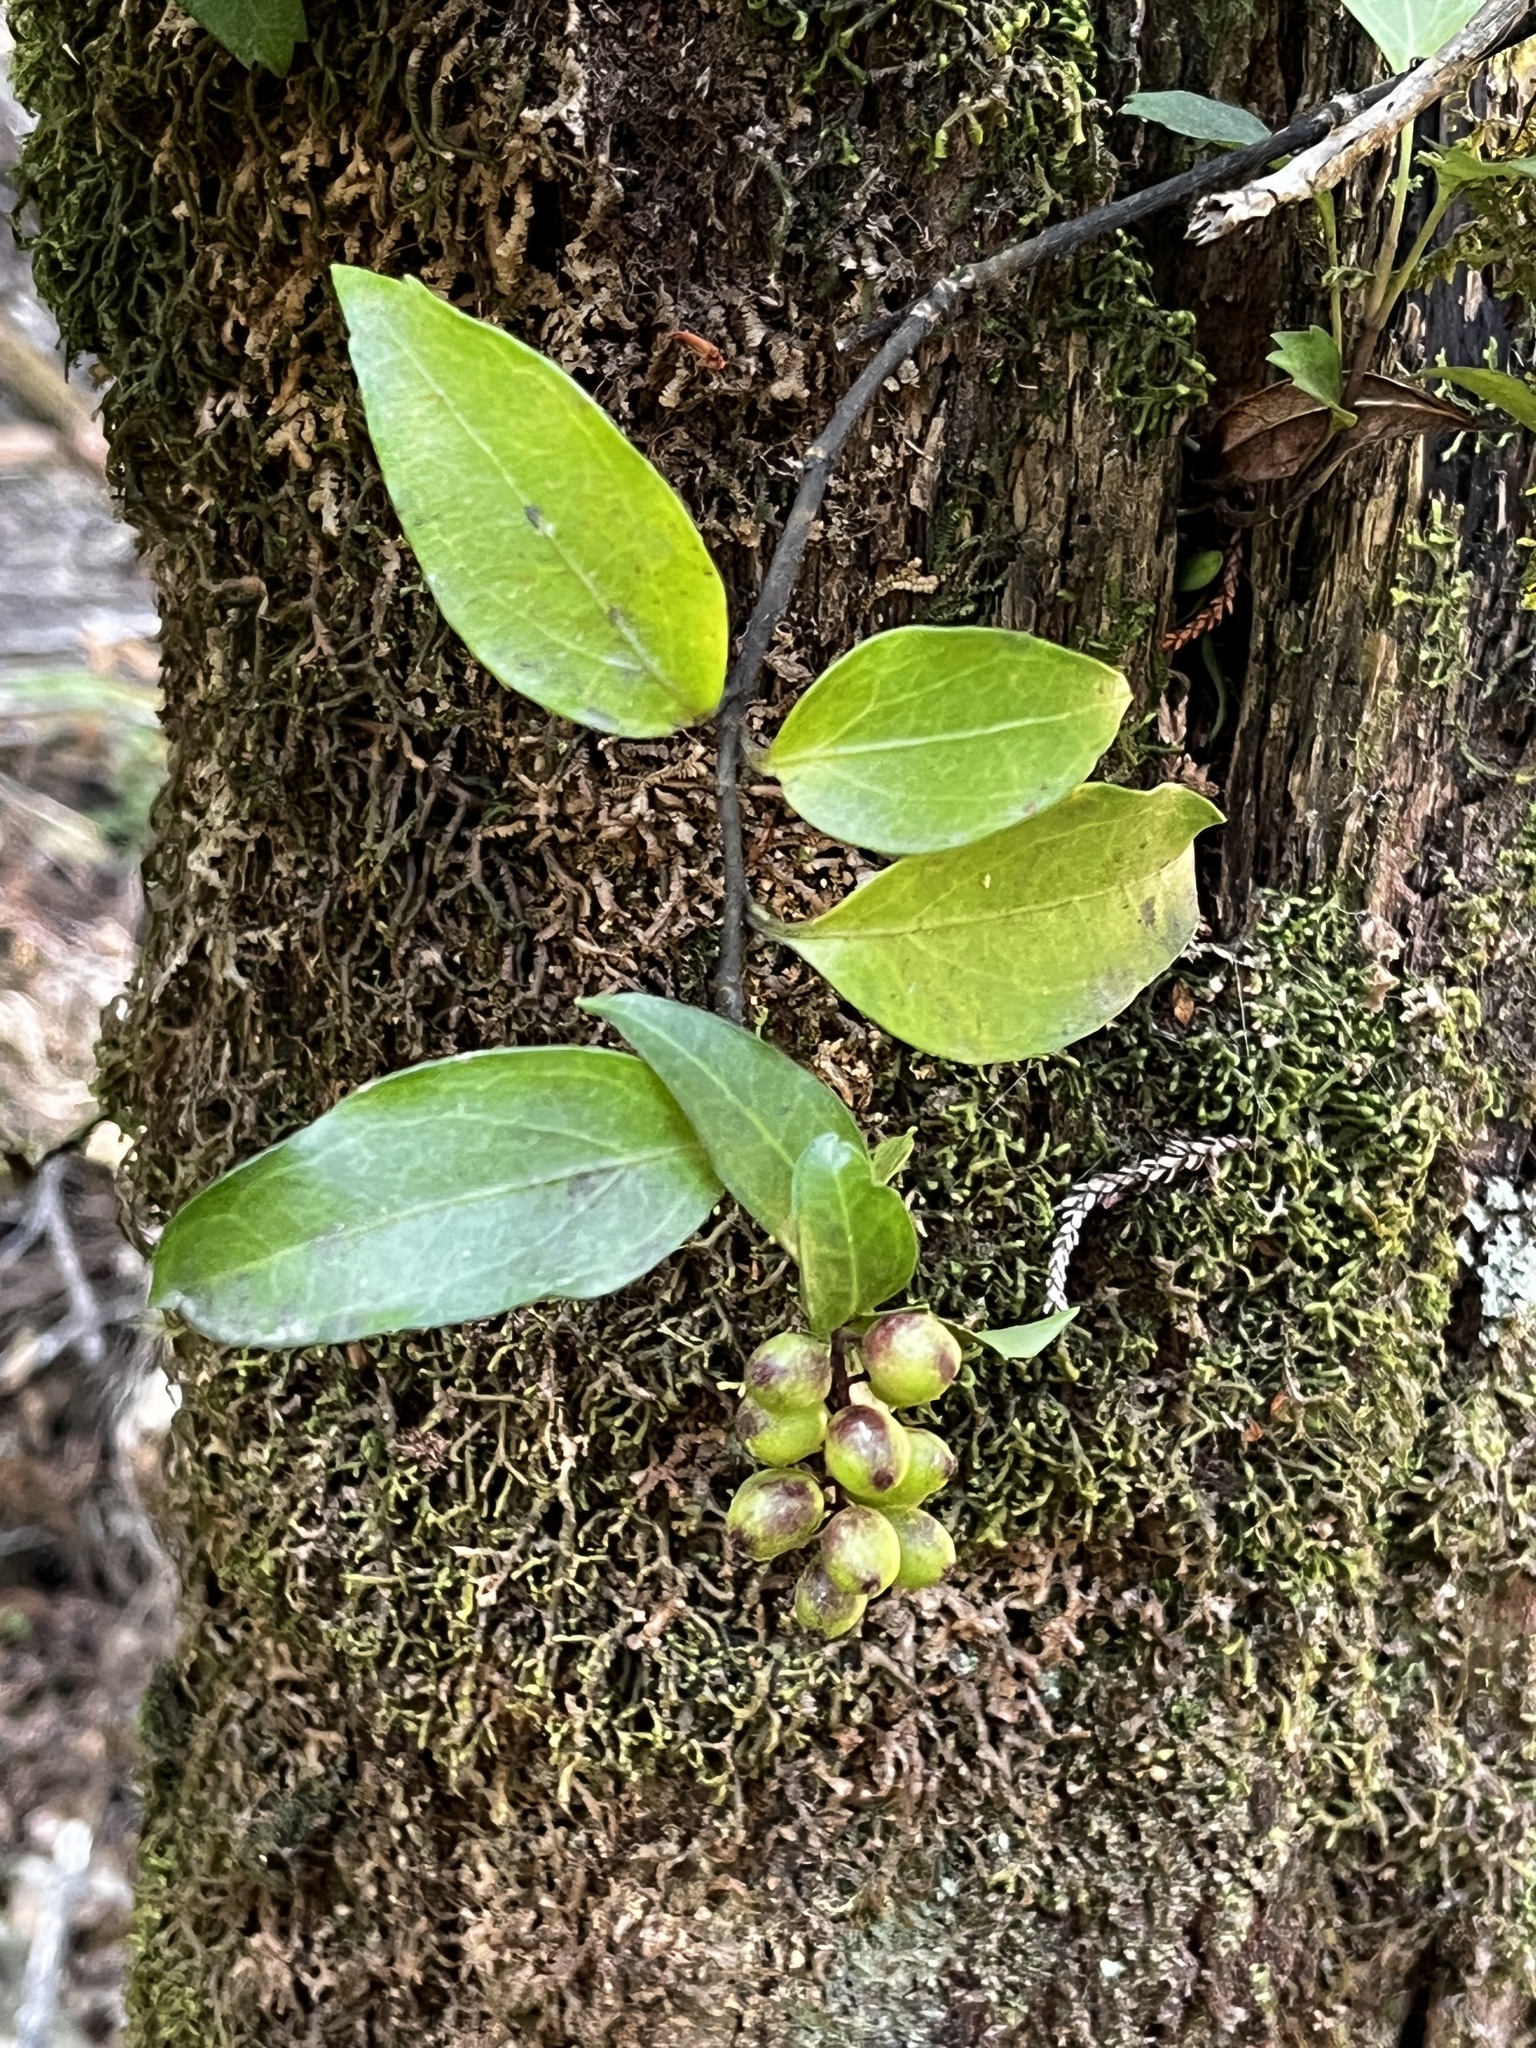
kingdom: Plantae
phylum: Tracheophyta
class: Magnoliopsida
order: Apiales
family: Griseliniaceae
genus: Griselinia
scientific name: Griselinia racemosa
